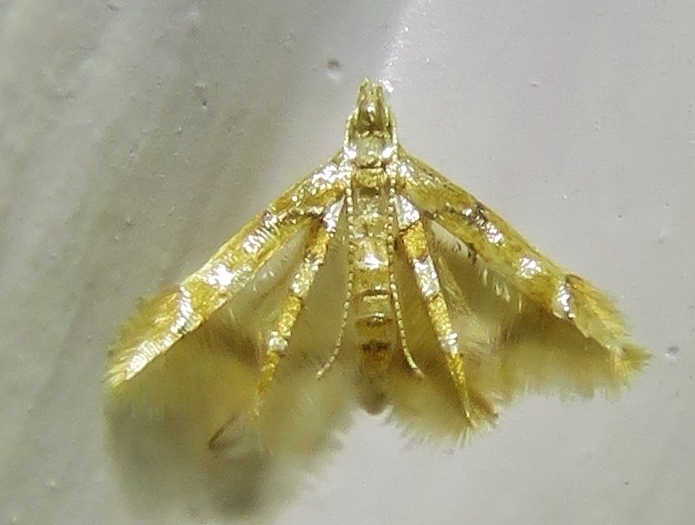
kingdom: Animalia
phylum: Arthropoda
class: Insecta
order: Lepidoptera
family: Epimarptidae
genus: Idioglossa
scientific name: Idioglossa miraculosa
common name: Miraculous idiogloss moth
